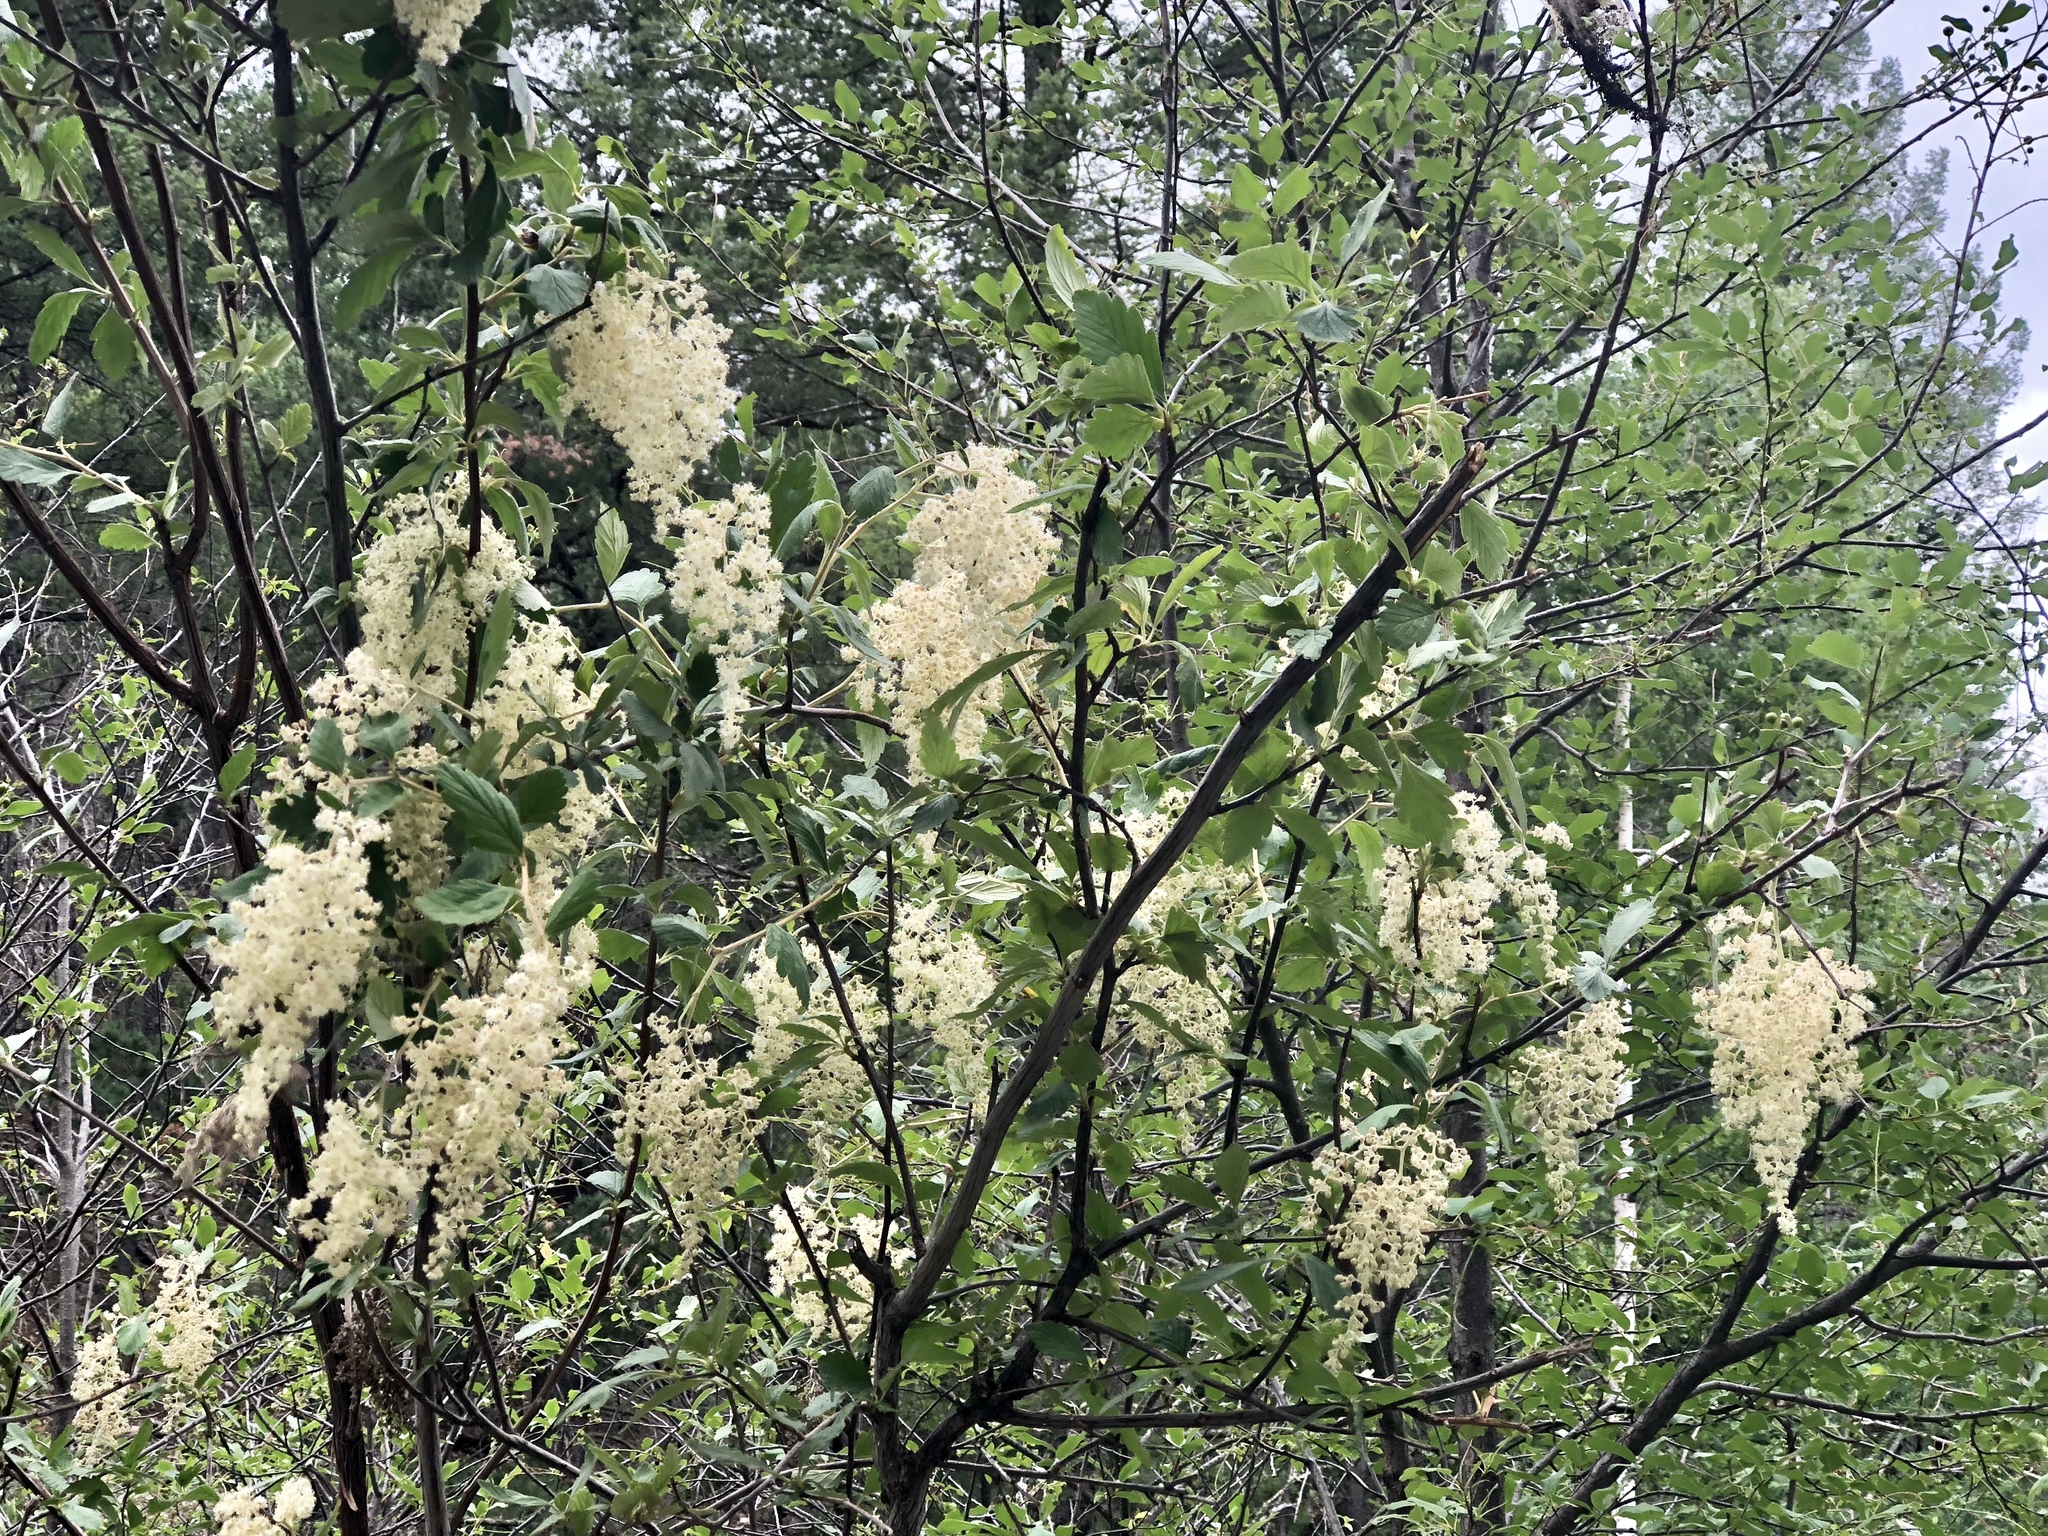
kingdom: Plantae
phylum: Tracheophyta
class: Magnoliopsida
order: Rosales
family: Rosaceae
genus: Holodiscus
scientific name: Holodiscus discolor
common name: Oceanspray
